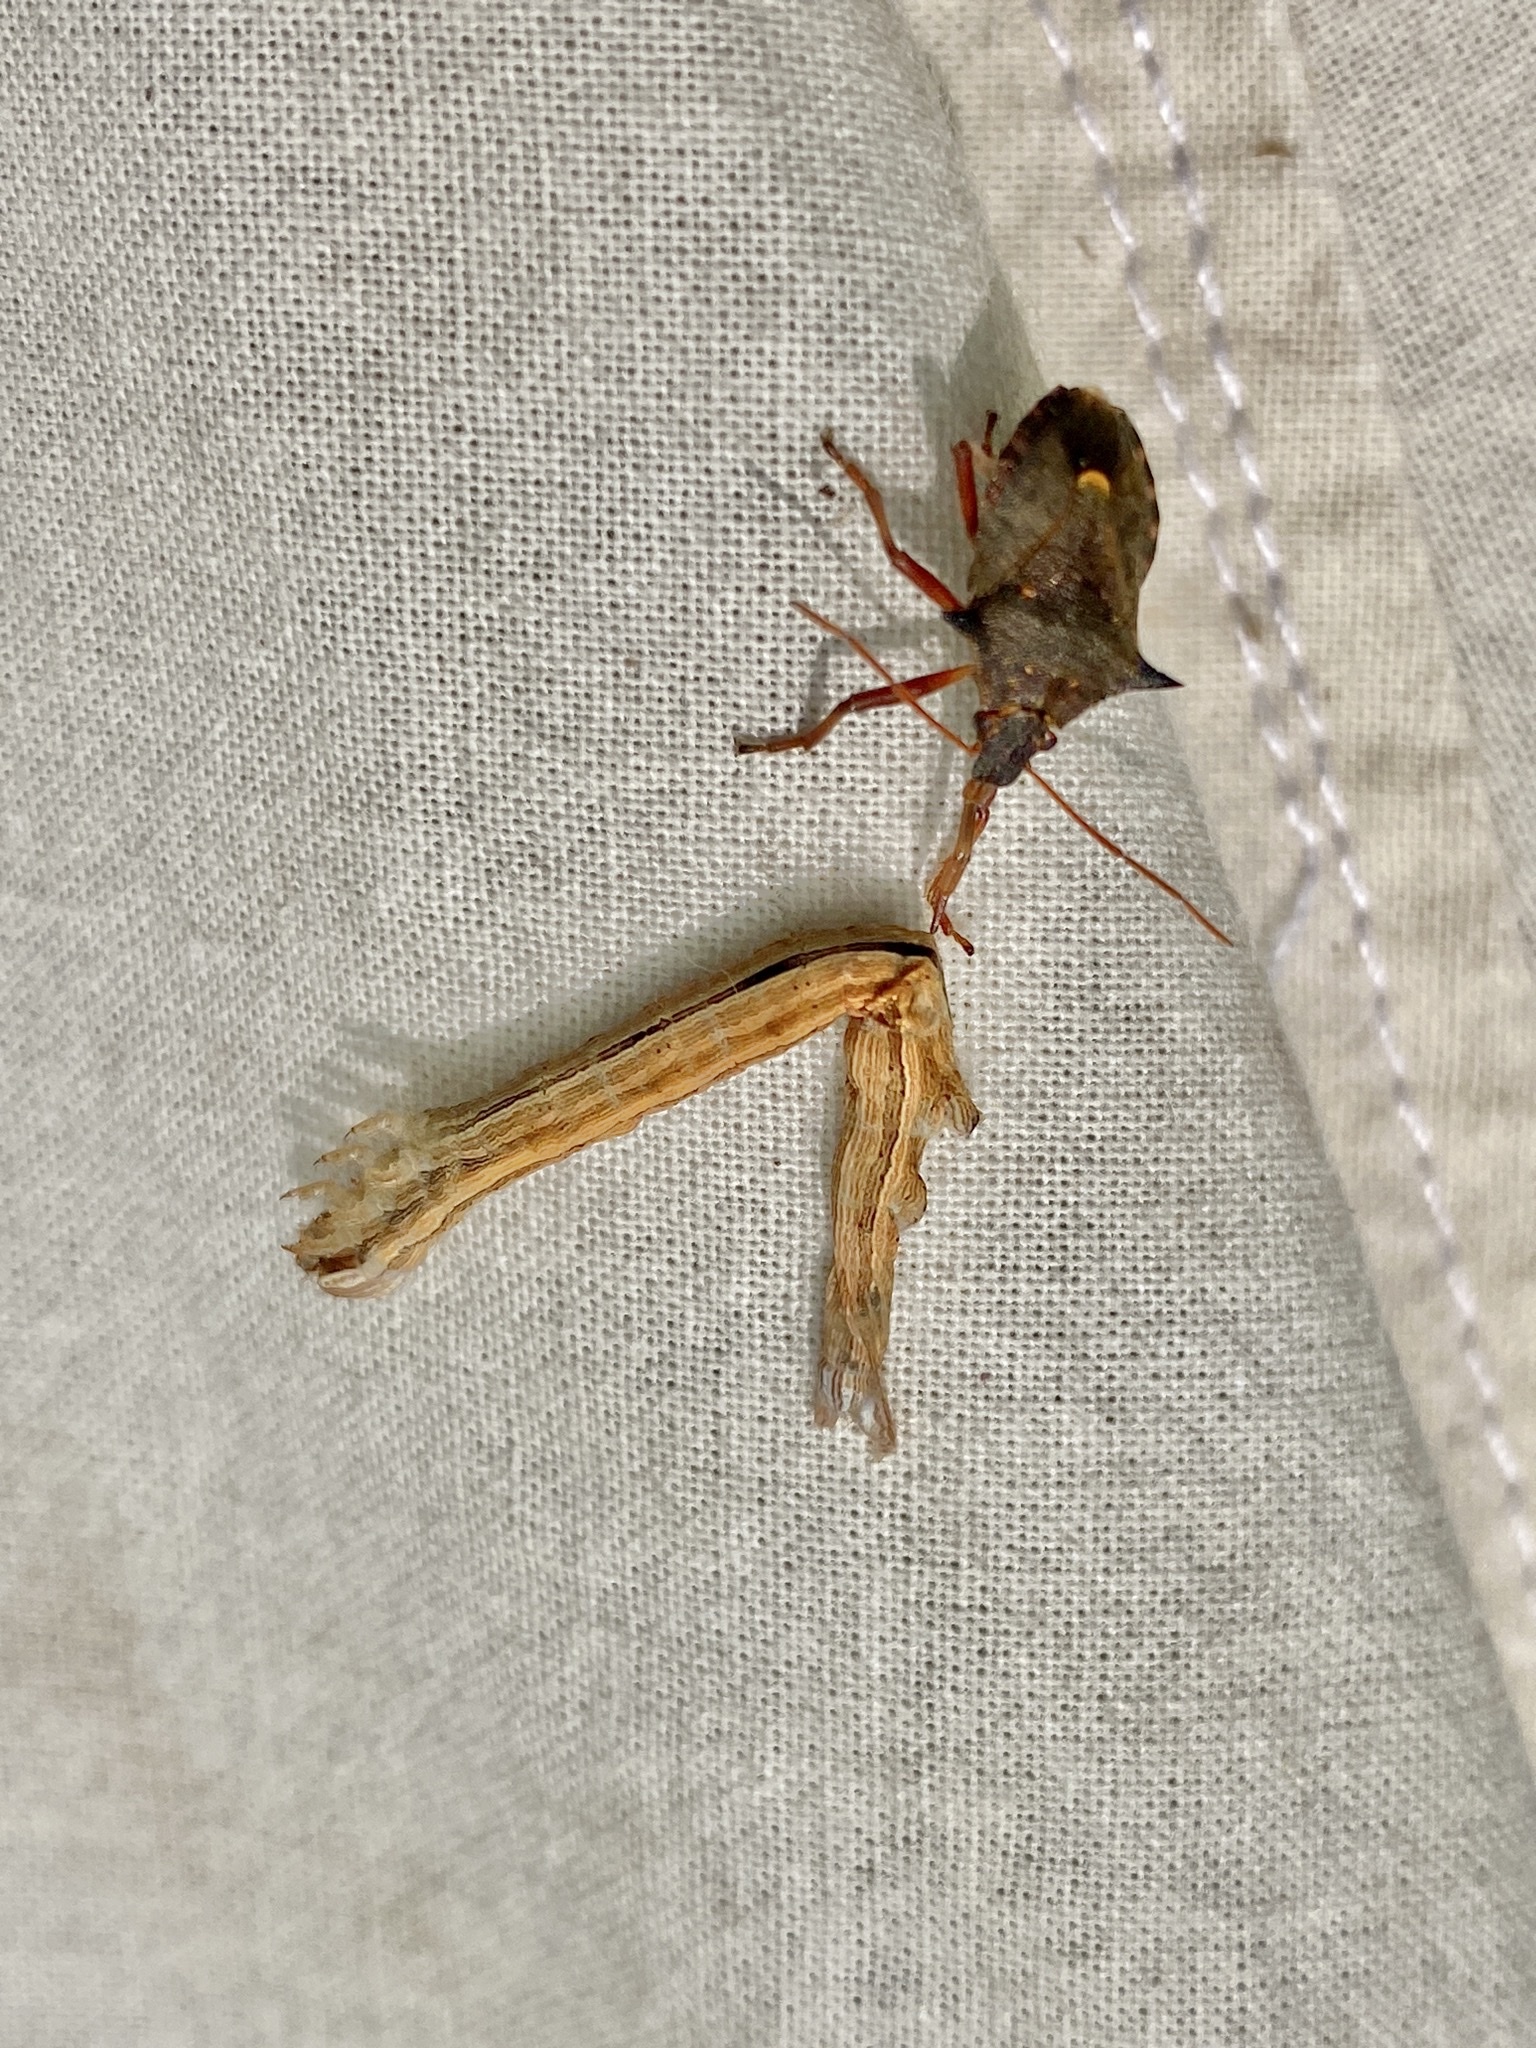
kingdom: Animalia
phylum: Arthropoda
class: Insecta
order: Hemiptera
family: Pentatomidae
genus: Picromerus
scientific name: Picromerus bidens
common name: Spiked shieldbug
